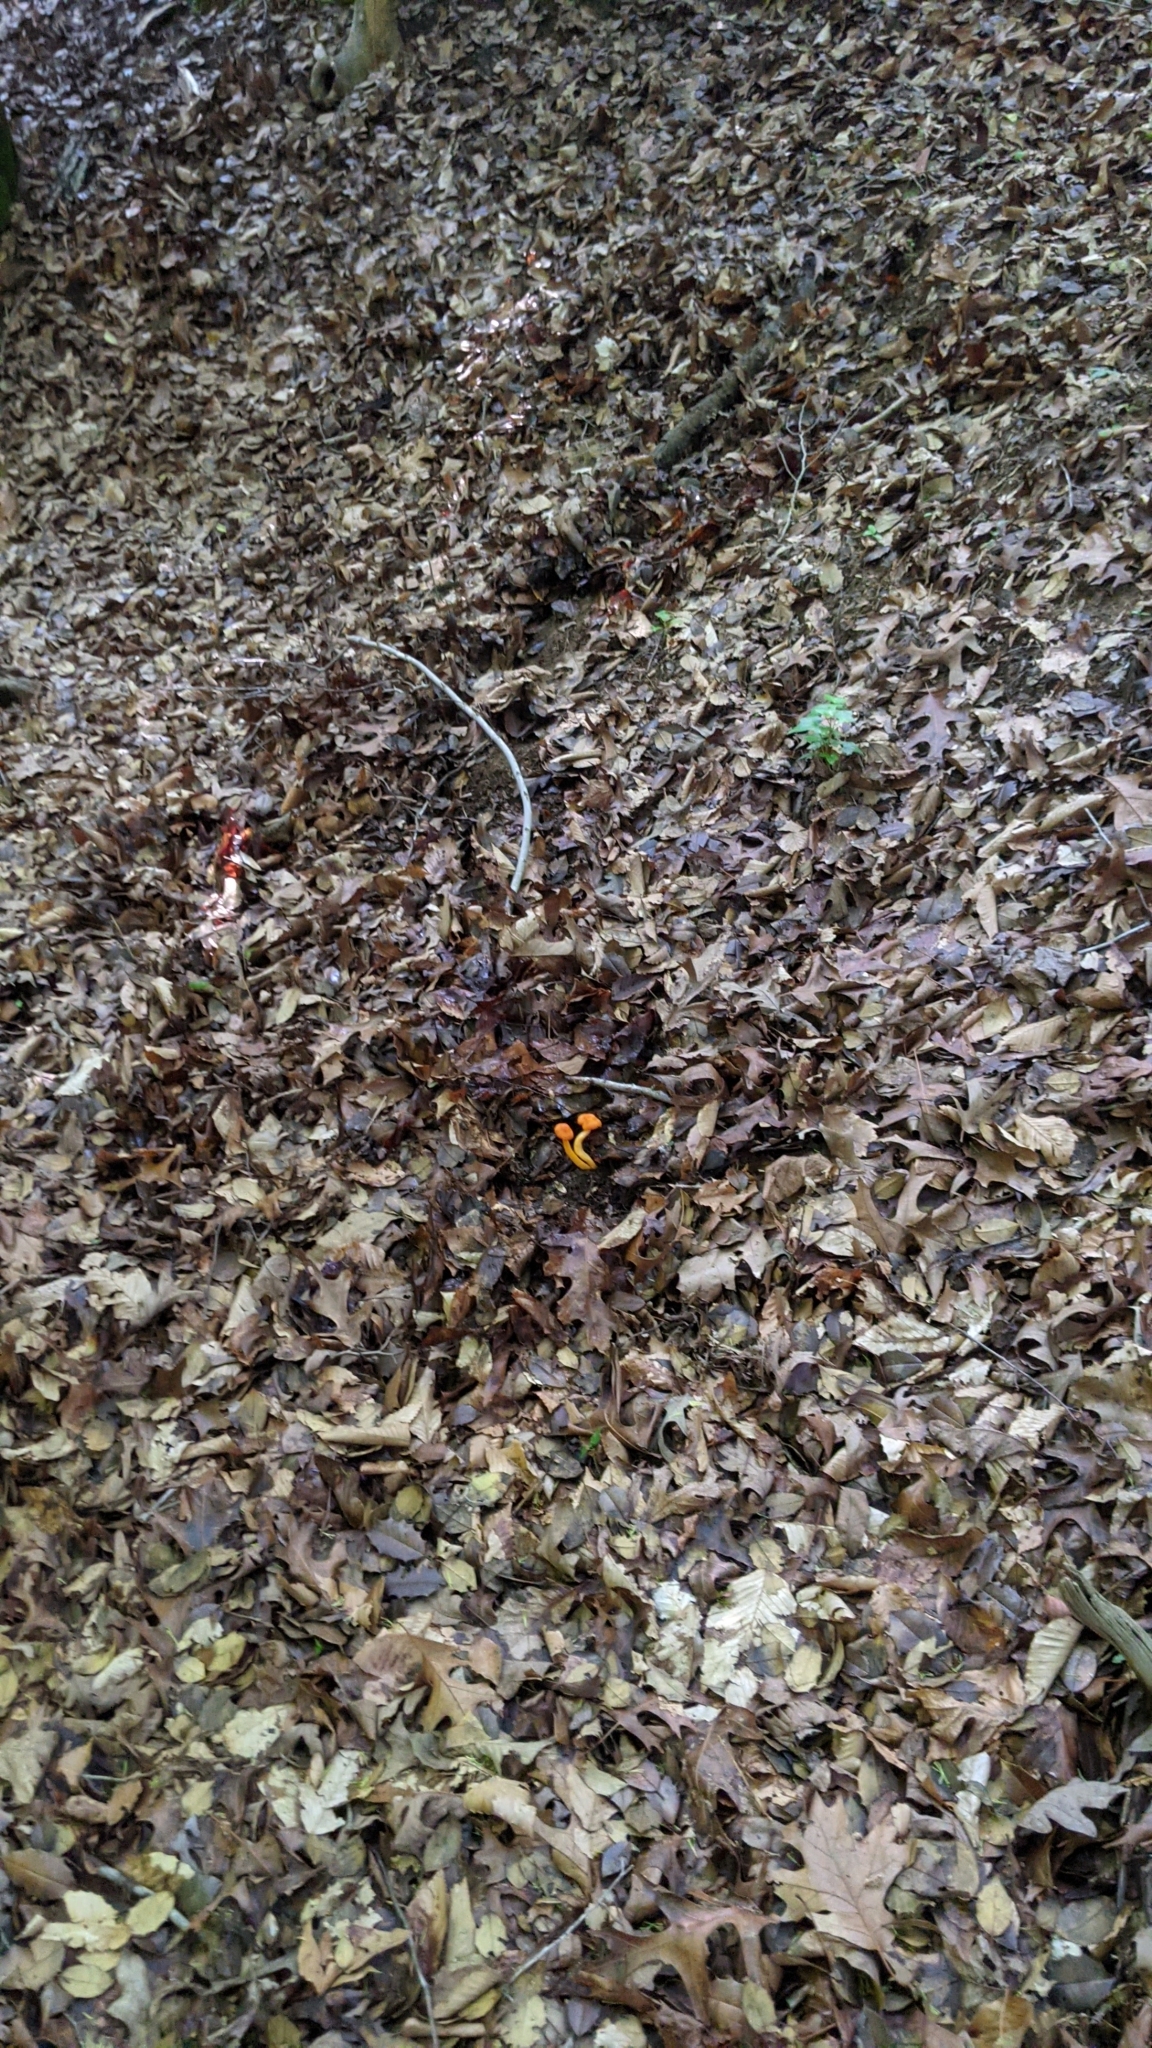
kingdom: Fungi
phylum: Basidiomycota
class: Agaricomycetes
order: Agaricales
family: Hygrophoraceae
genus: Humidicutis
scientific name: Humidicutis marginata
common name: Orange gilled waxcap
